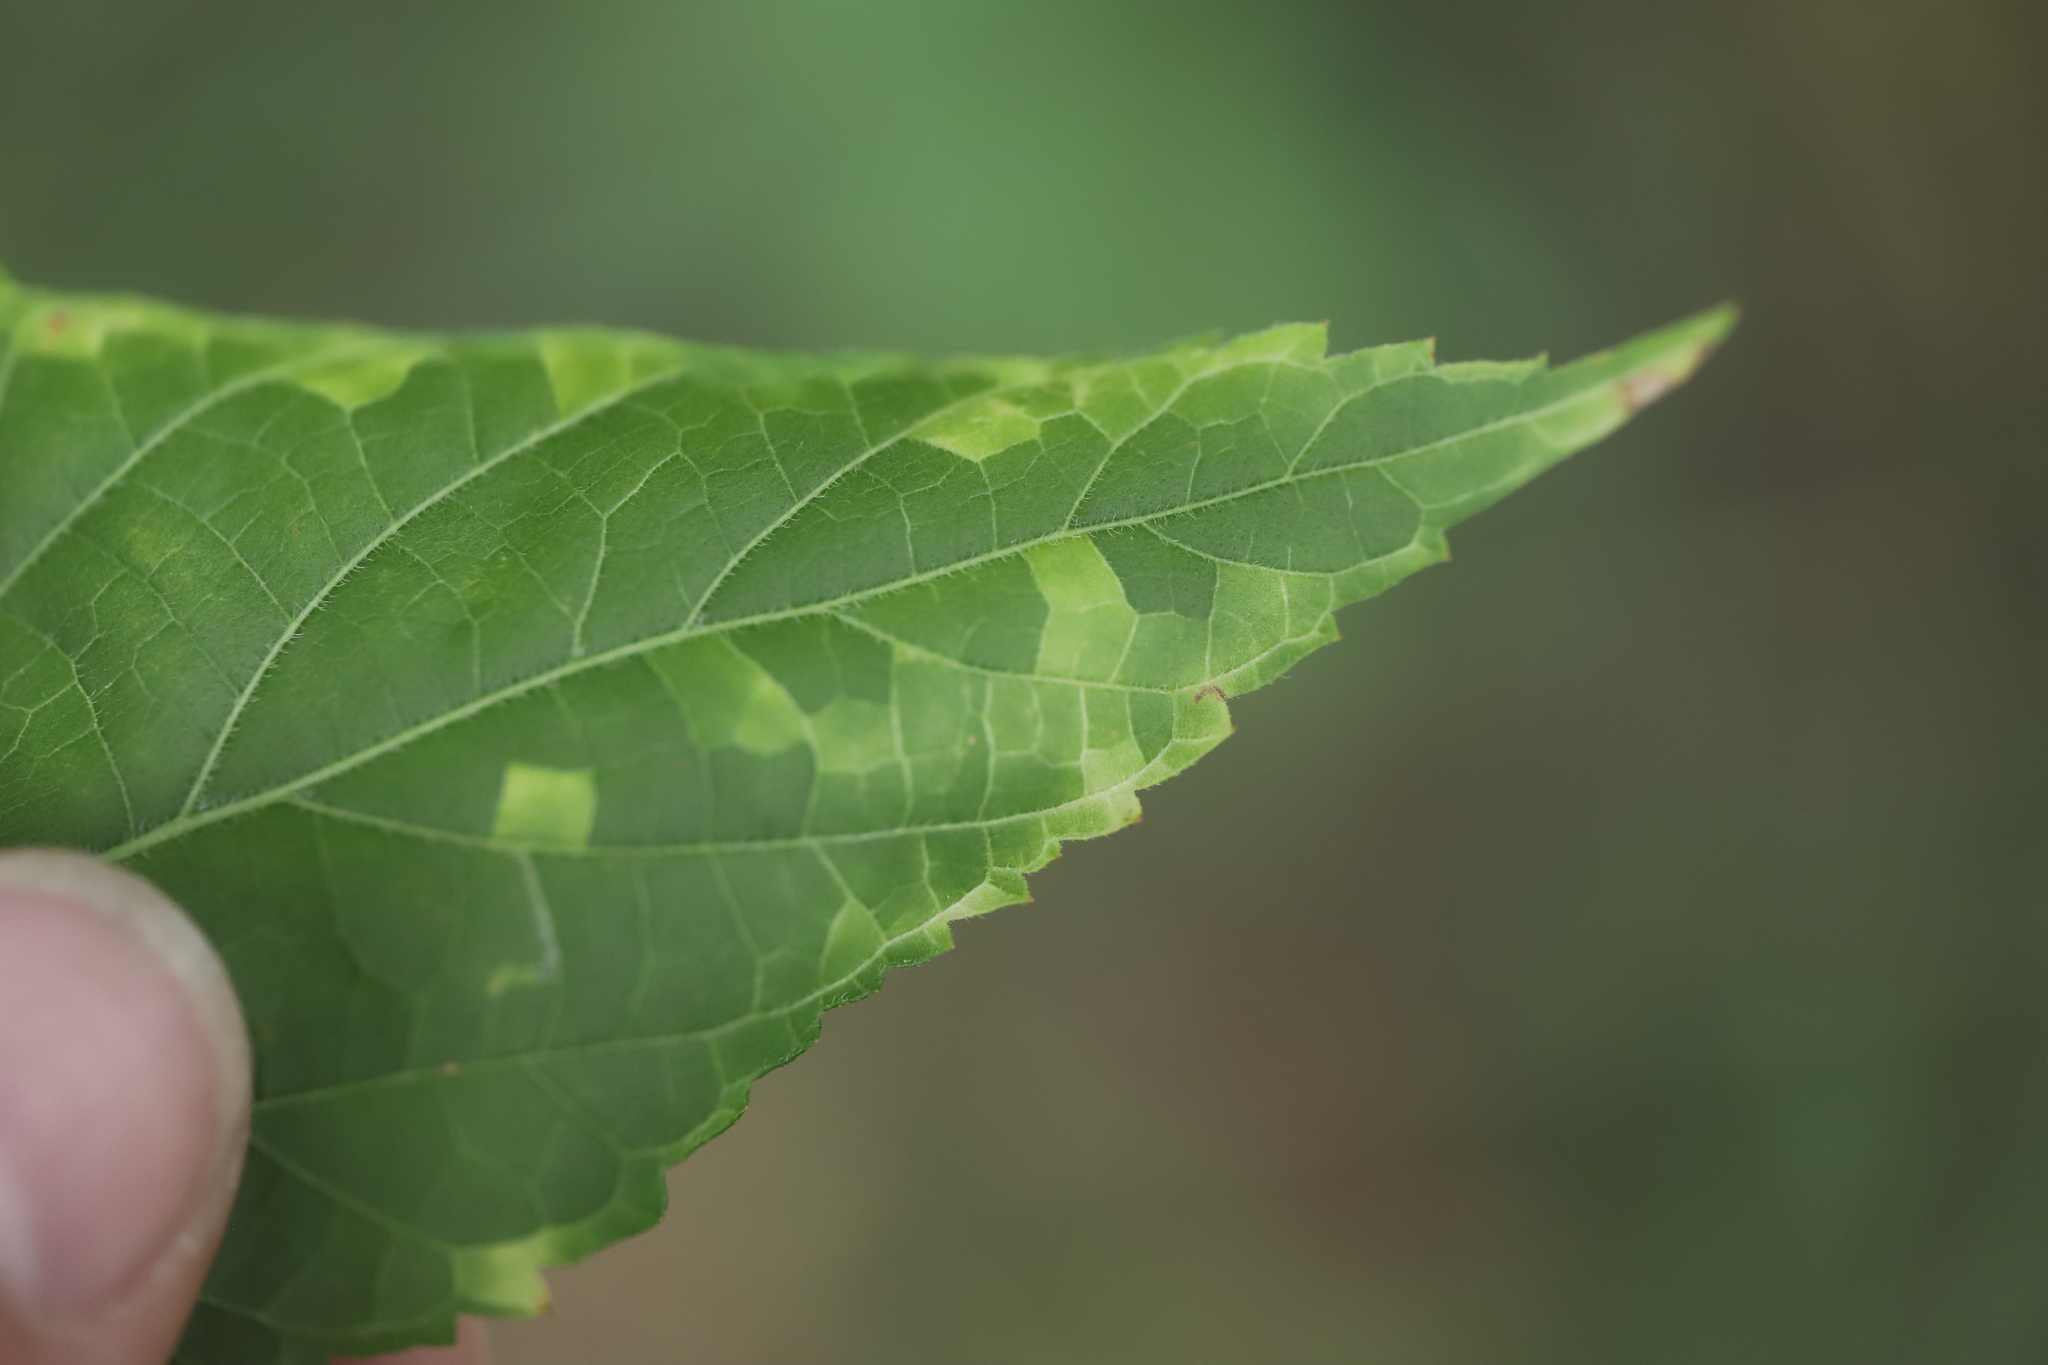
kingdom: Viruses
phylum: Kitrinoviricota
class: Alsuviricetes
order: Martellivirales
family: Closteroviridae
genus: Ampelovirus
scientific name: Ampelovirus
